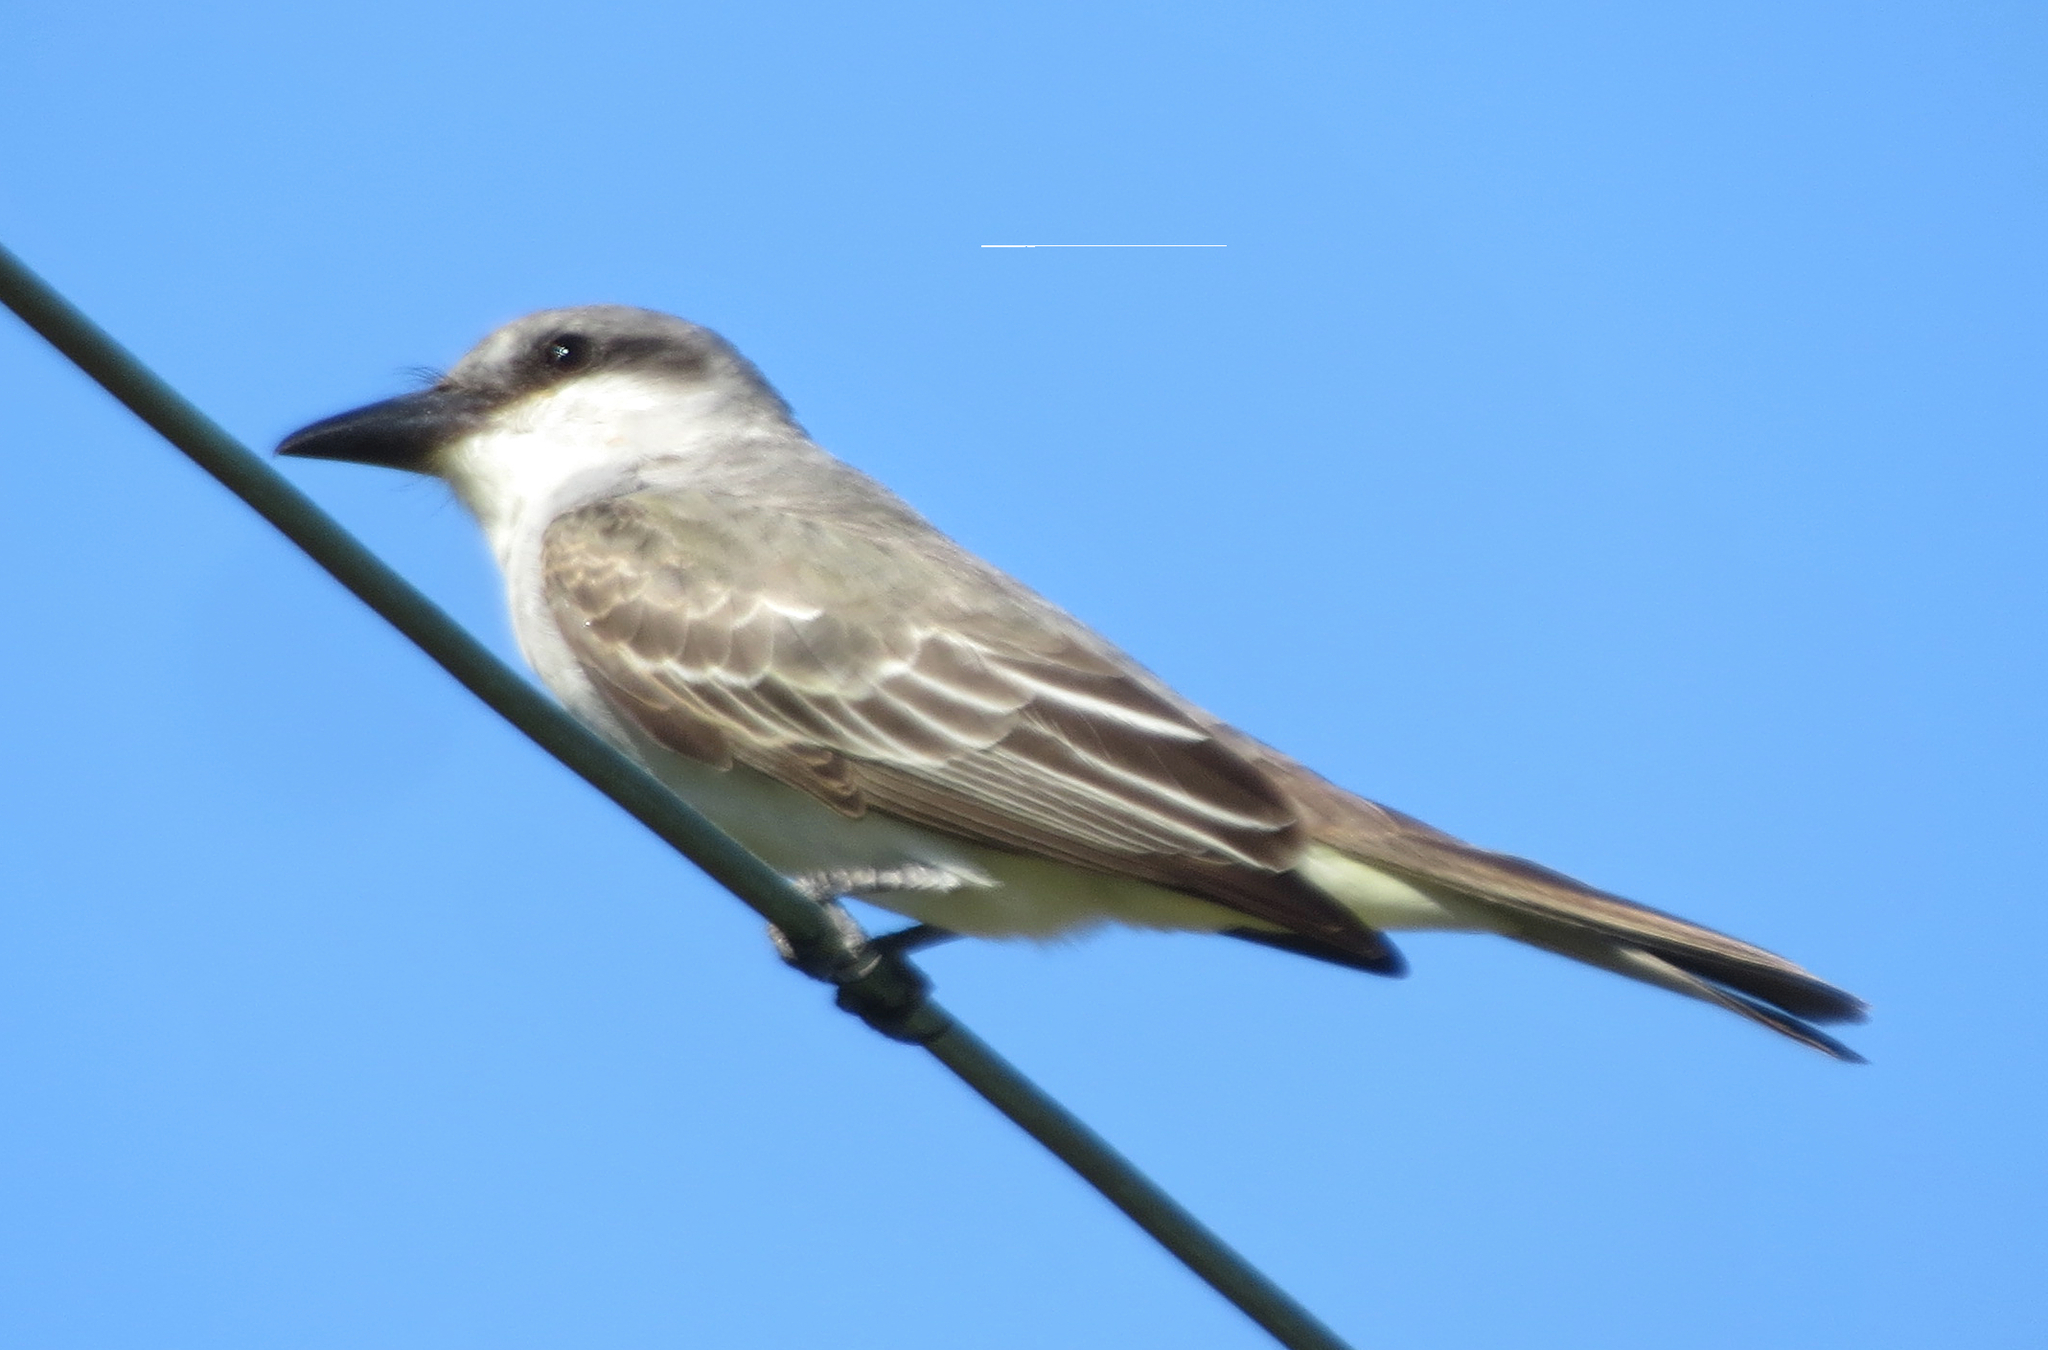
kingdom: Animalia
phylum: Chordata
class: Aves
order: Passeriformes
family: Tyrannidae
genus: Tyrannus
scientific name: Tyrannus dominicensis
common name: Gray kingbird
